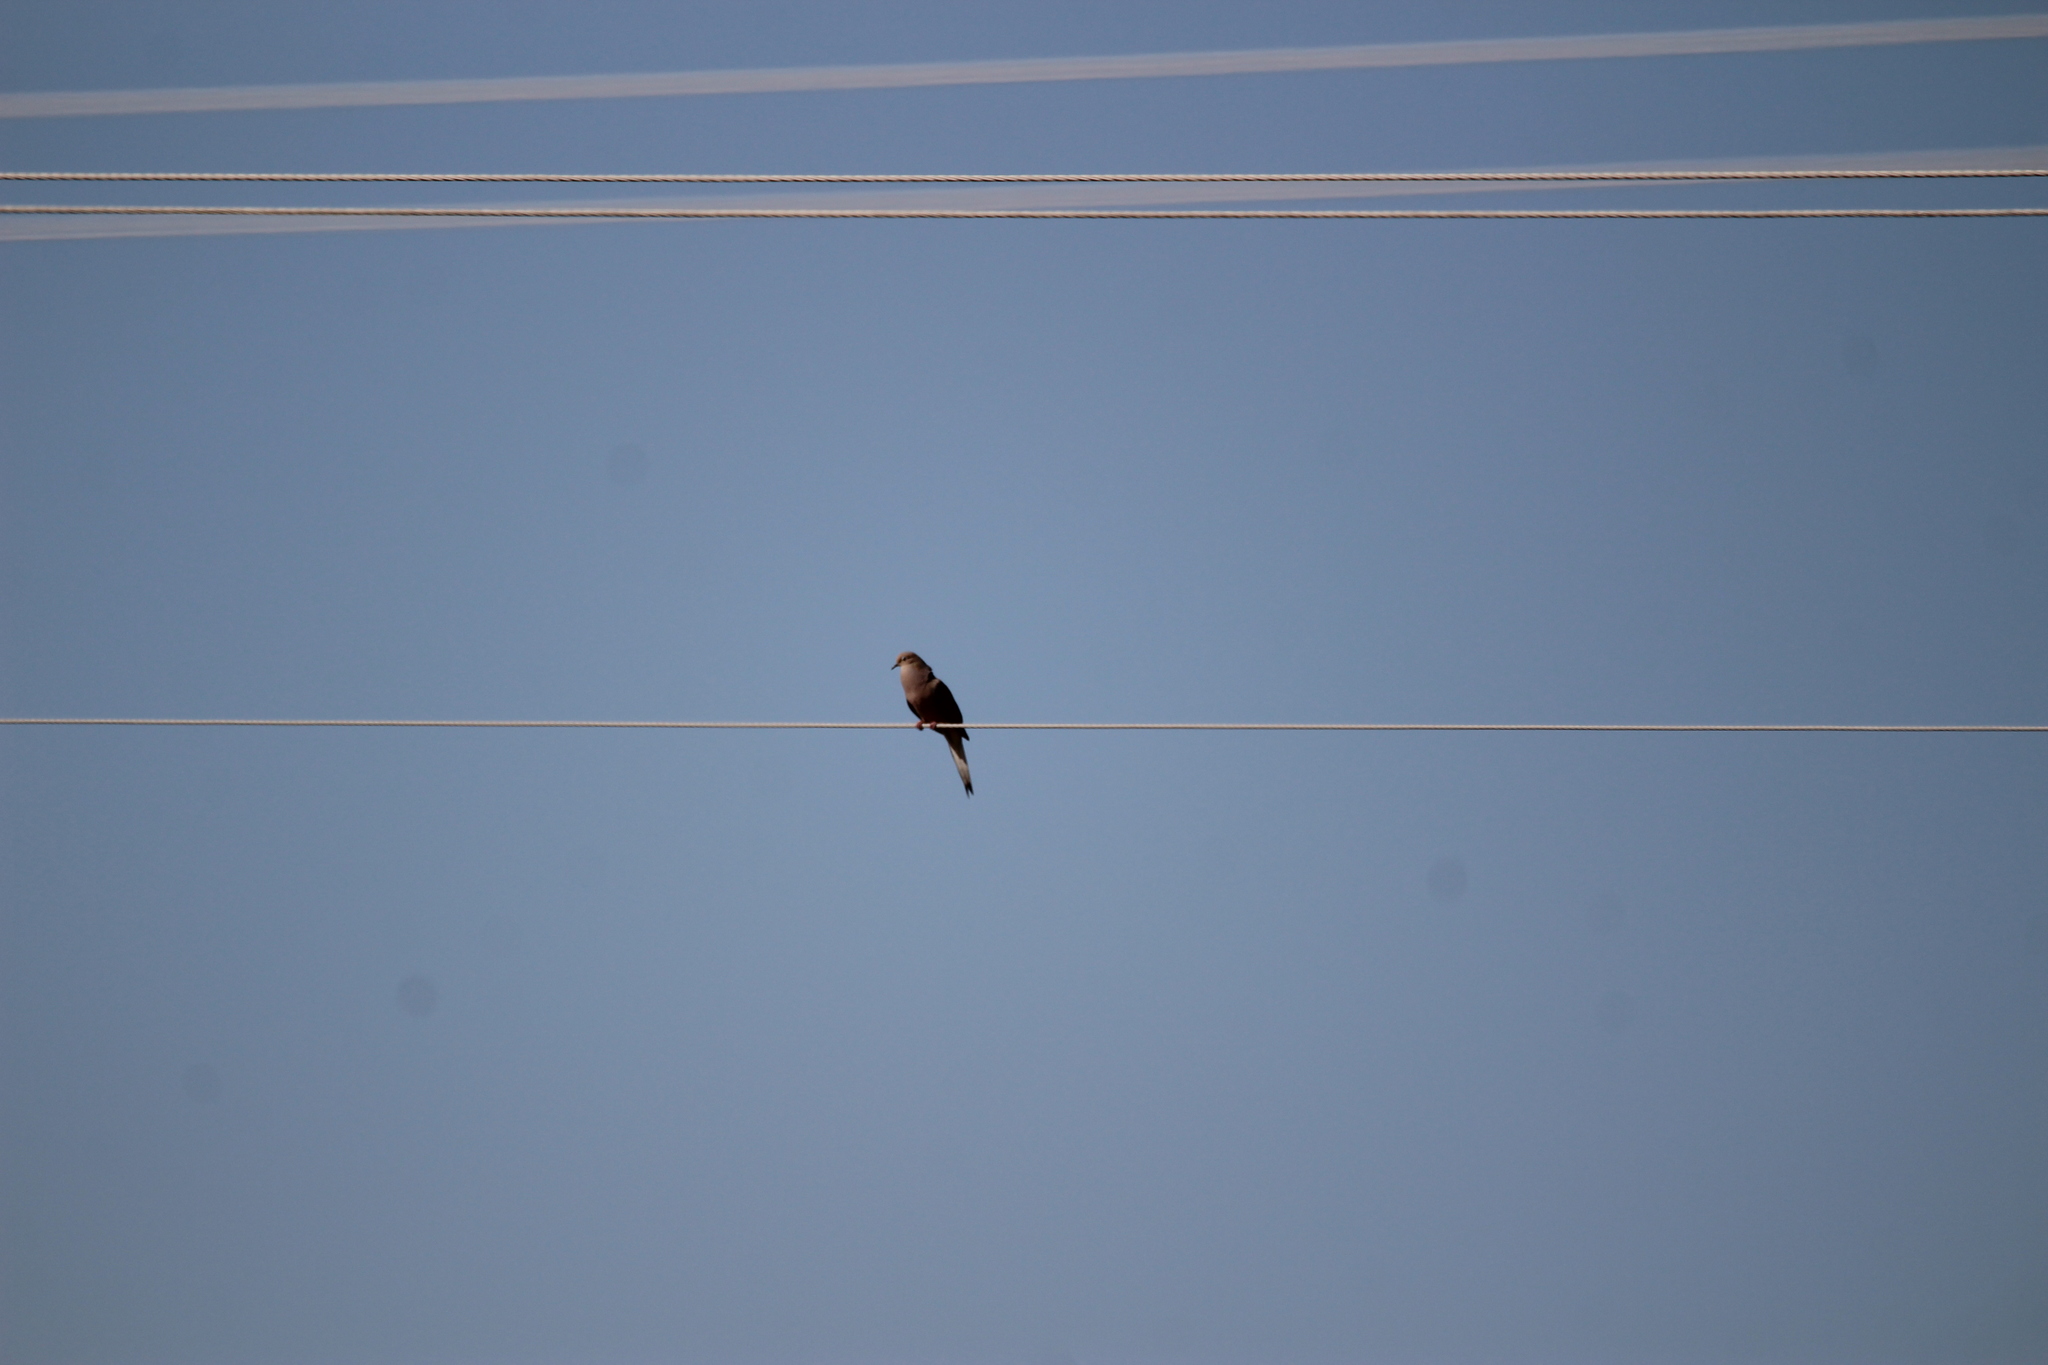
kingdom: Animalia
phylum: Chordata
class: Aves
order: Columbiformes
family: Columbidae
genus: Zenaida
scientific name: Zenaida macroura
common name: Mourning dove
